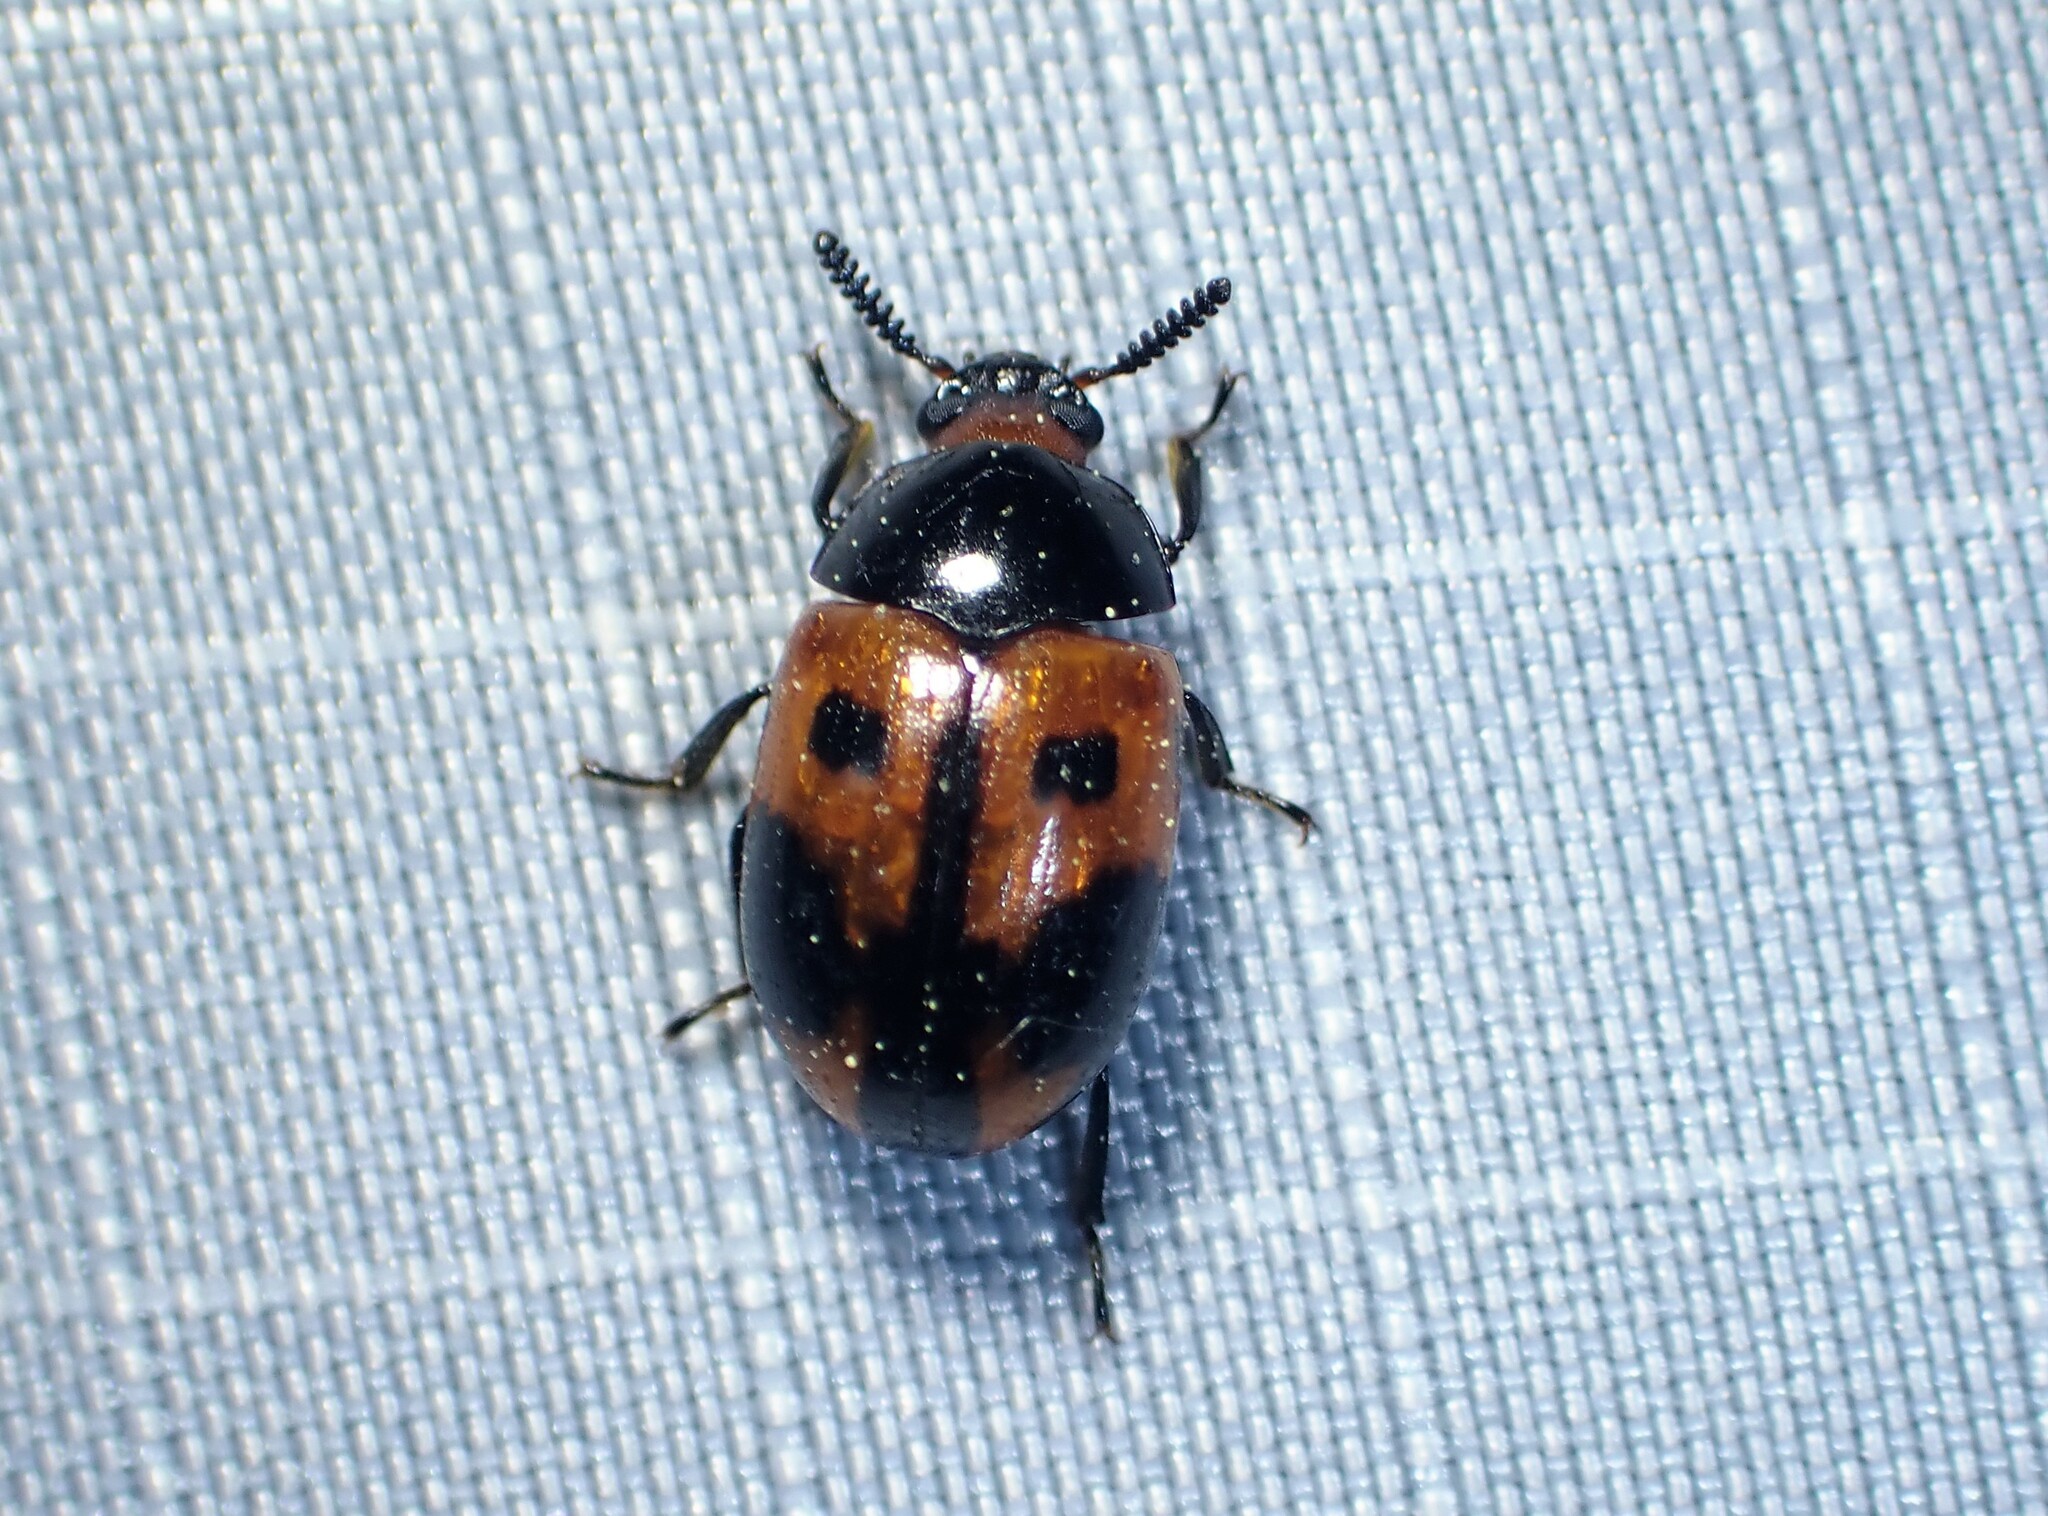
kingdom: Animalia
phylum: Arthropoda
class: Insecta
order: Coleoptera
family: Tenebrionidae
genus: Diaperis
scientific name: Diaperis maculata
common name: Darkling beetle
